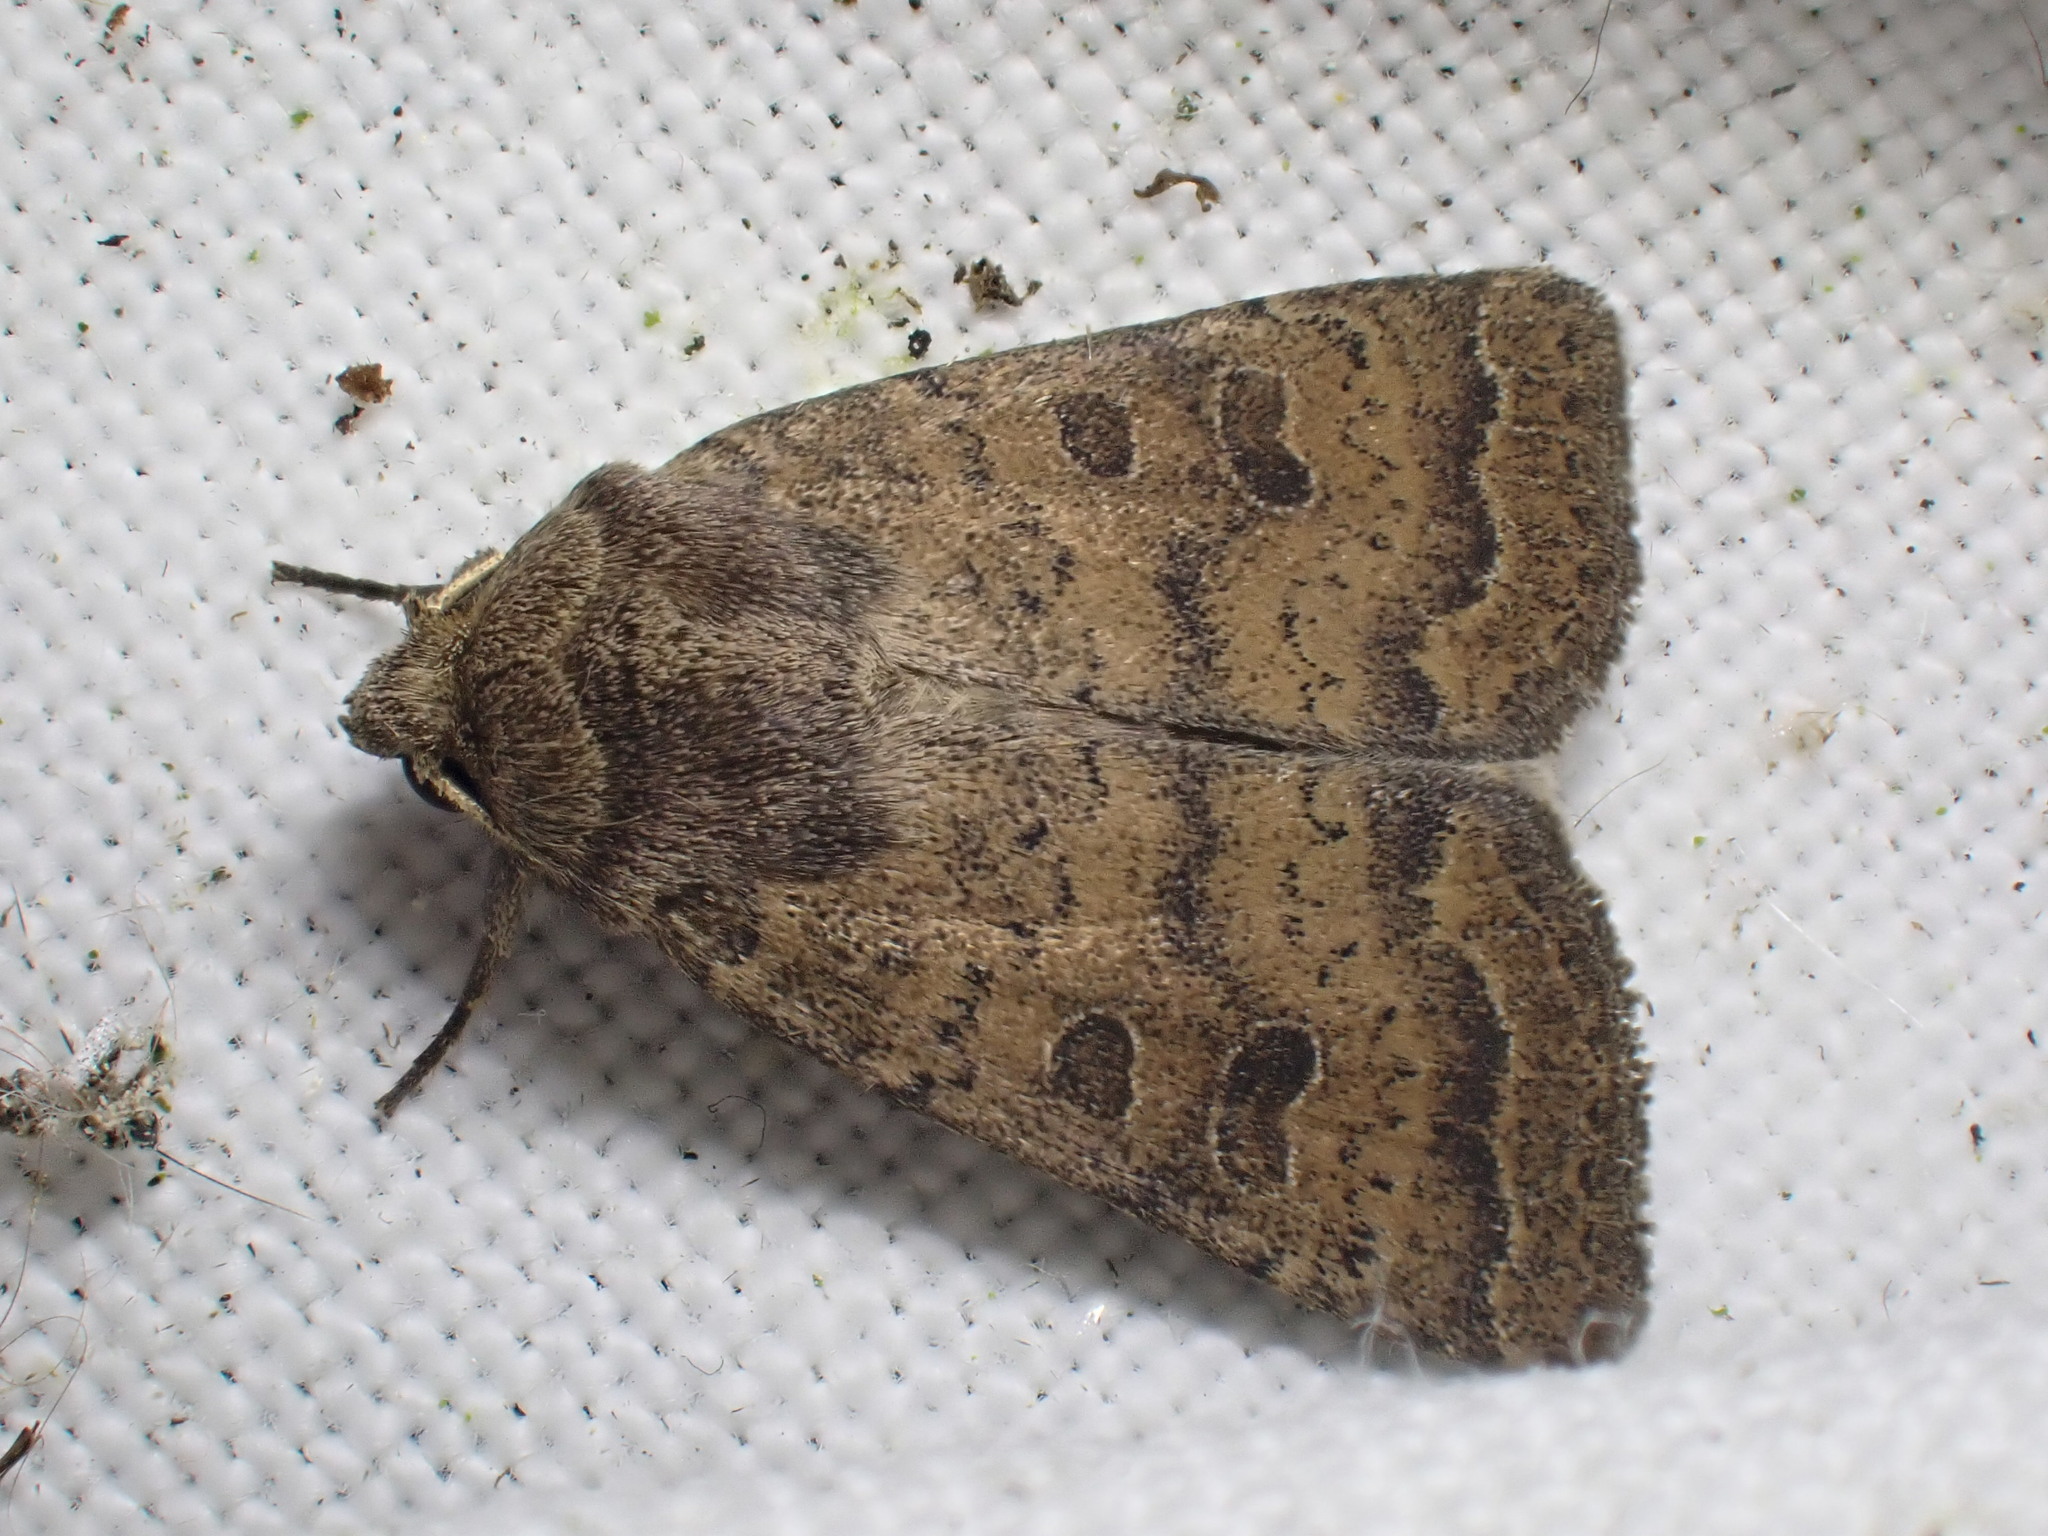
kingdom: Animalia
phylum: Arthropoda
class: Insecta
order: Lepidoptera
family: Noctuidae
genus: Hoplodrina
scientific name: Hoplodrina octogenaria
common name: Uncertain
